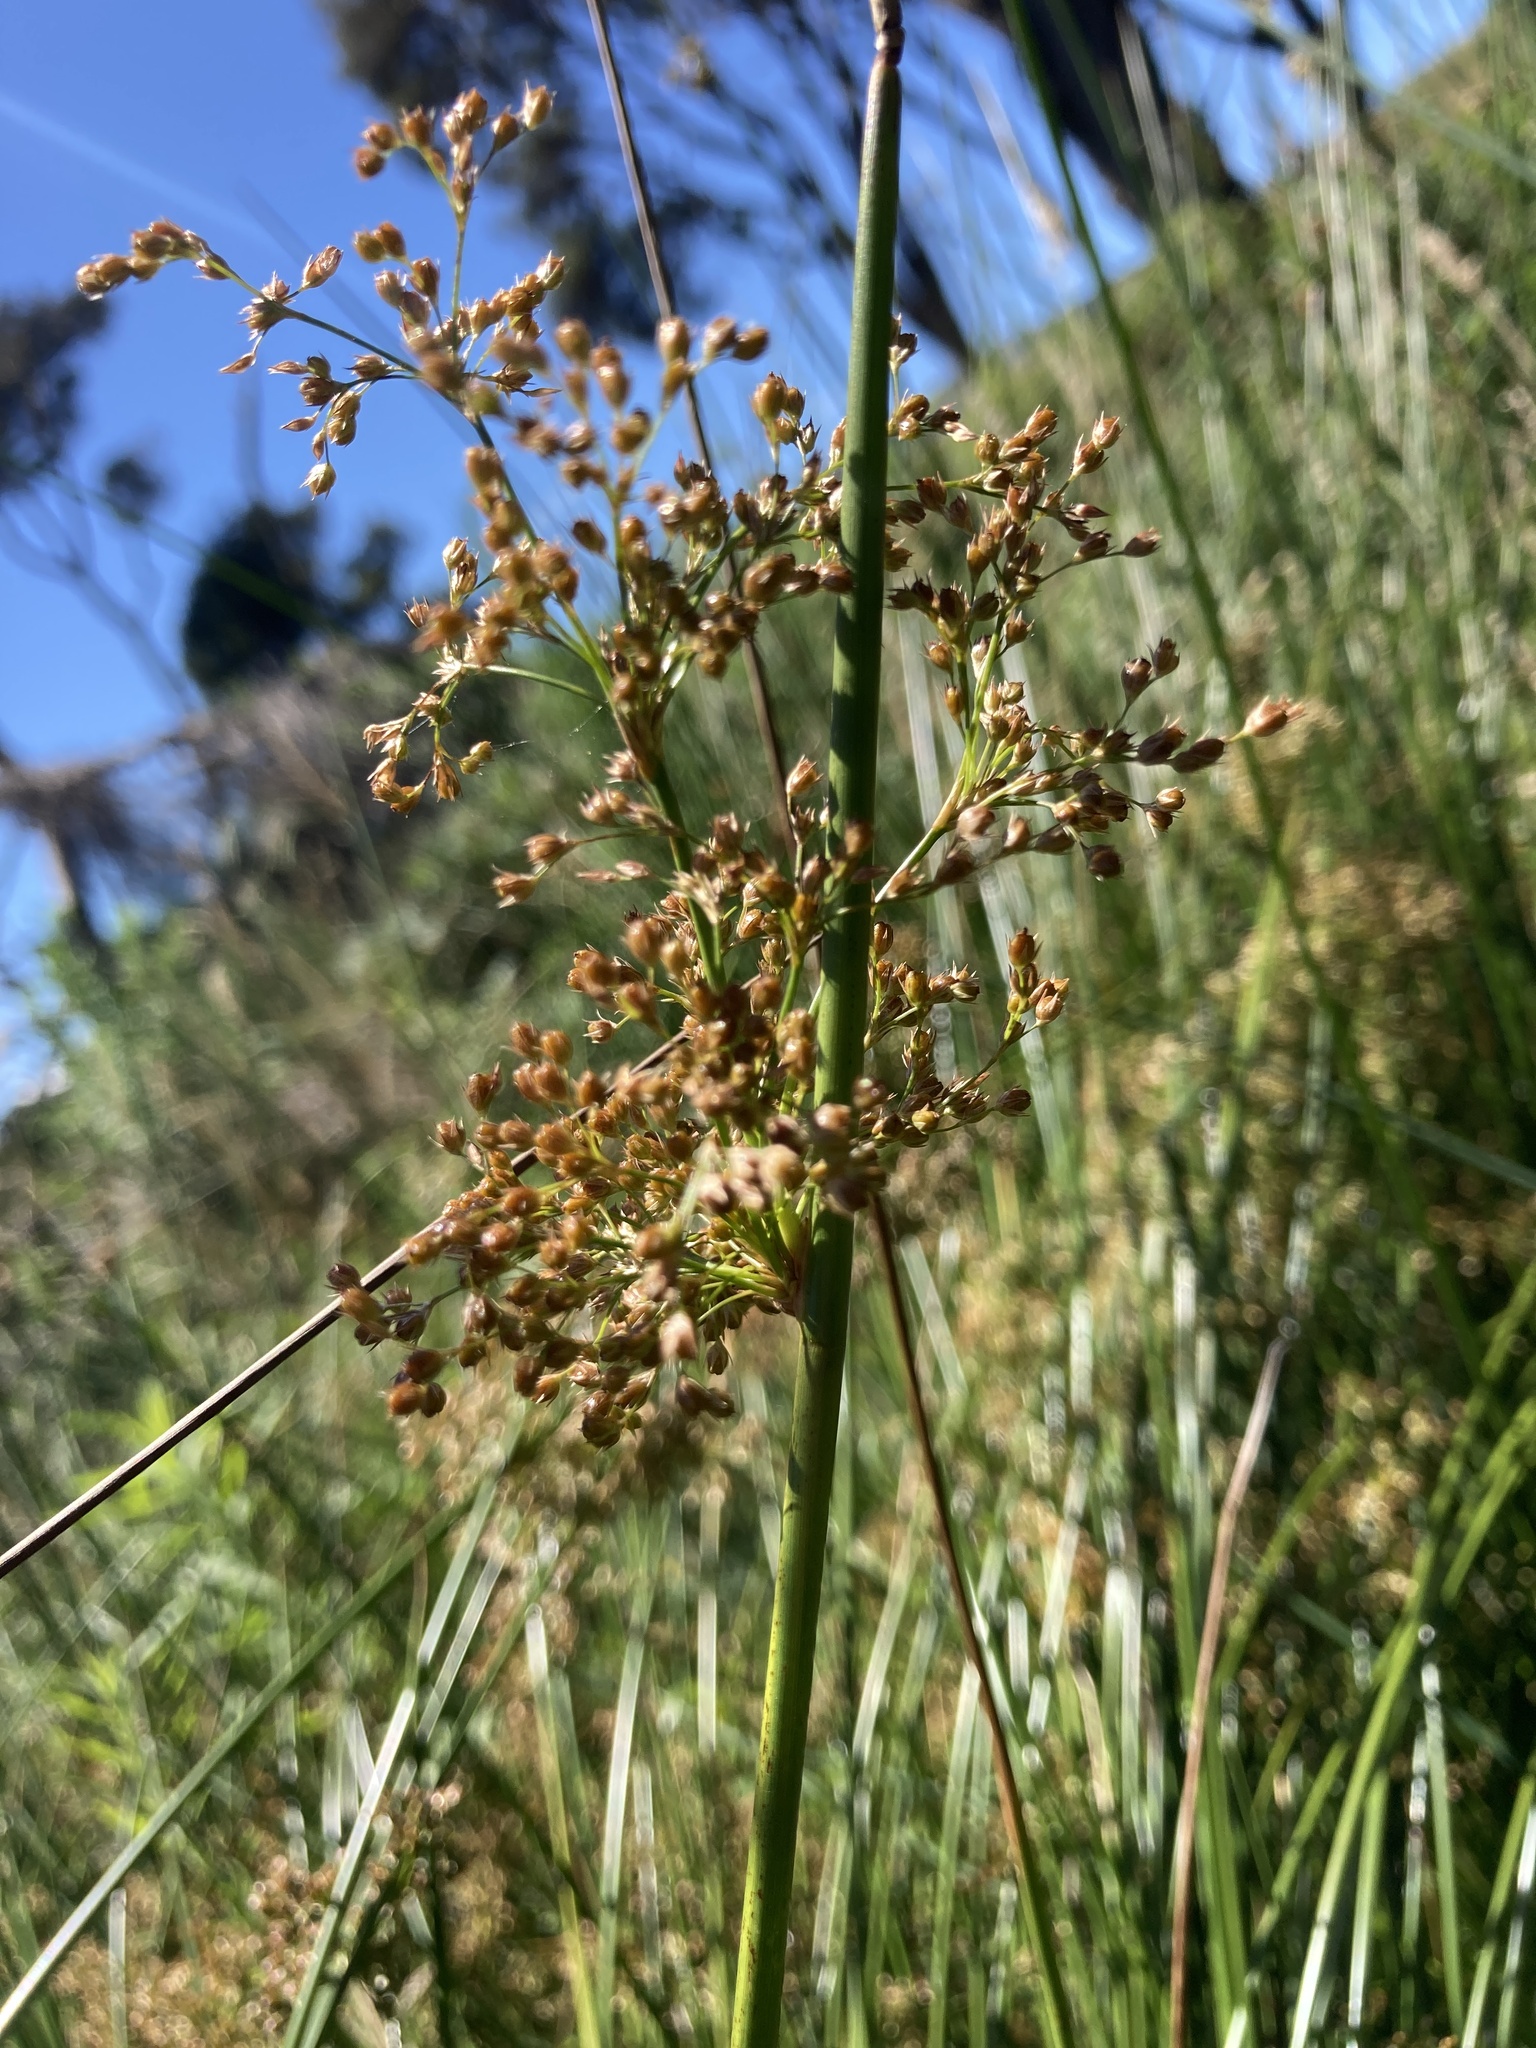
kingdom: Plantae
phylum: Tracheophyta
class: Liliopsida
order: Poales
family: Juncaceae
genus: Juncus
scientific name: Juncus effusus
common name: Soft rush
